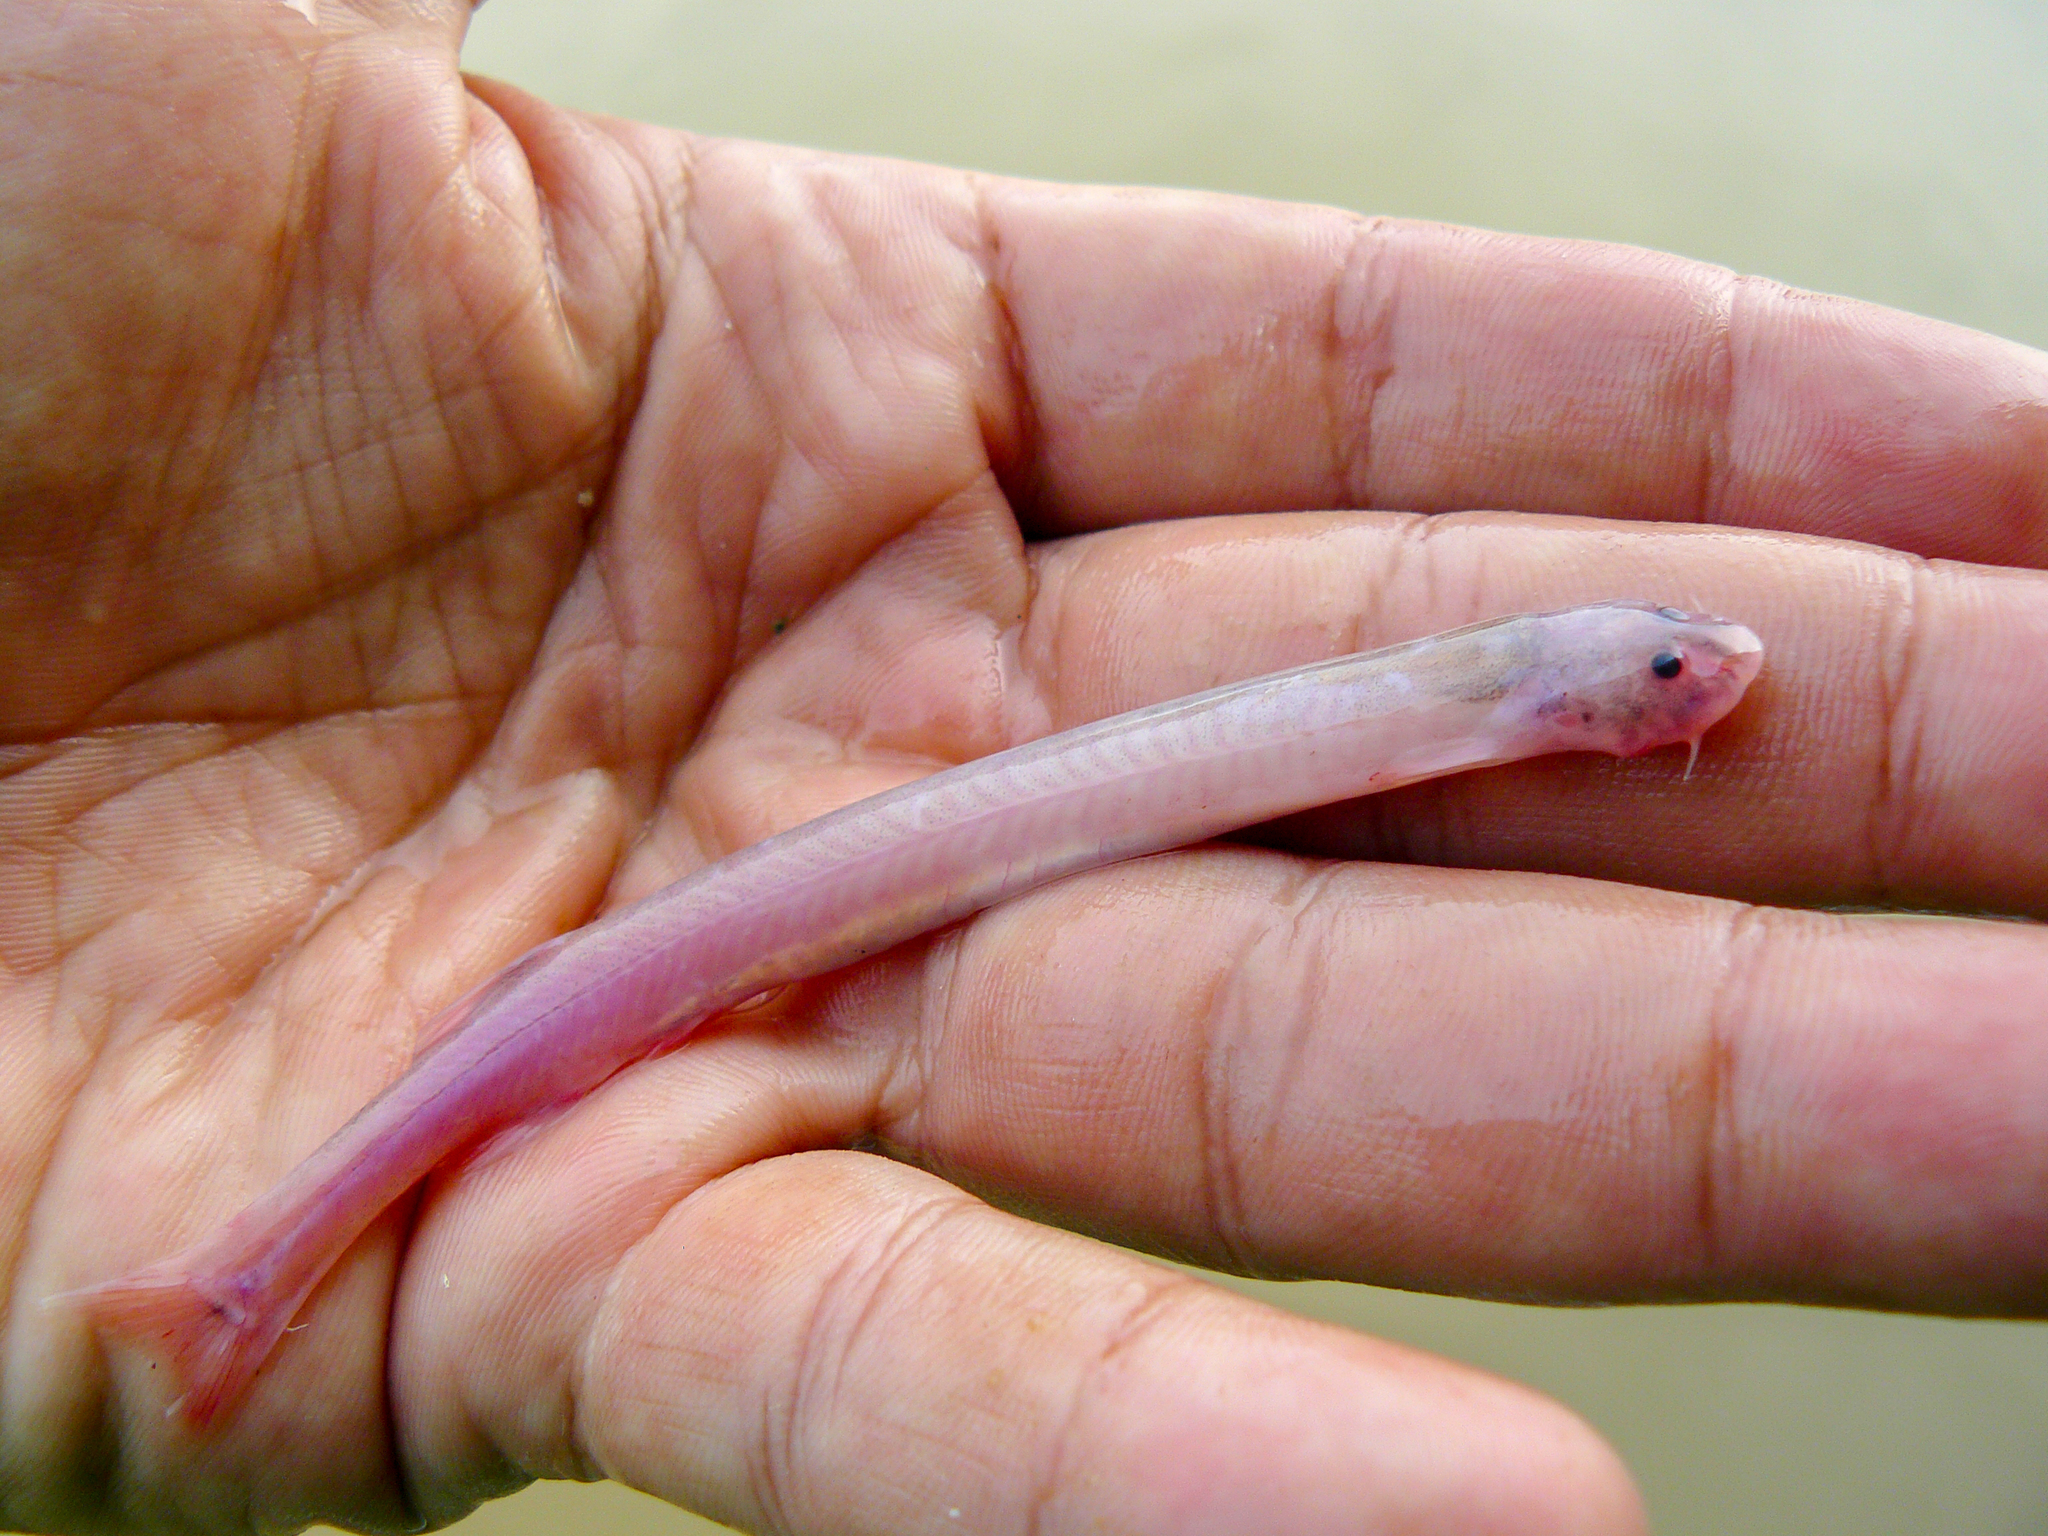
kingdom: Animalia
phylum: Chordata
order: Siluriformes
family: Trichomycteridae
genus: Pareiodon
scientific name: Pareiodon microps
